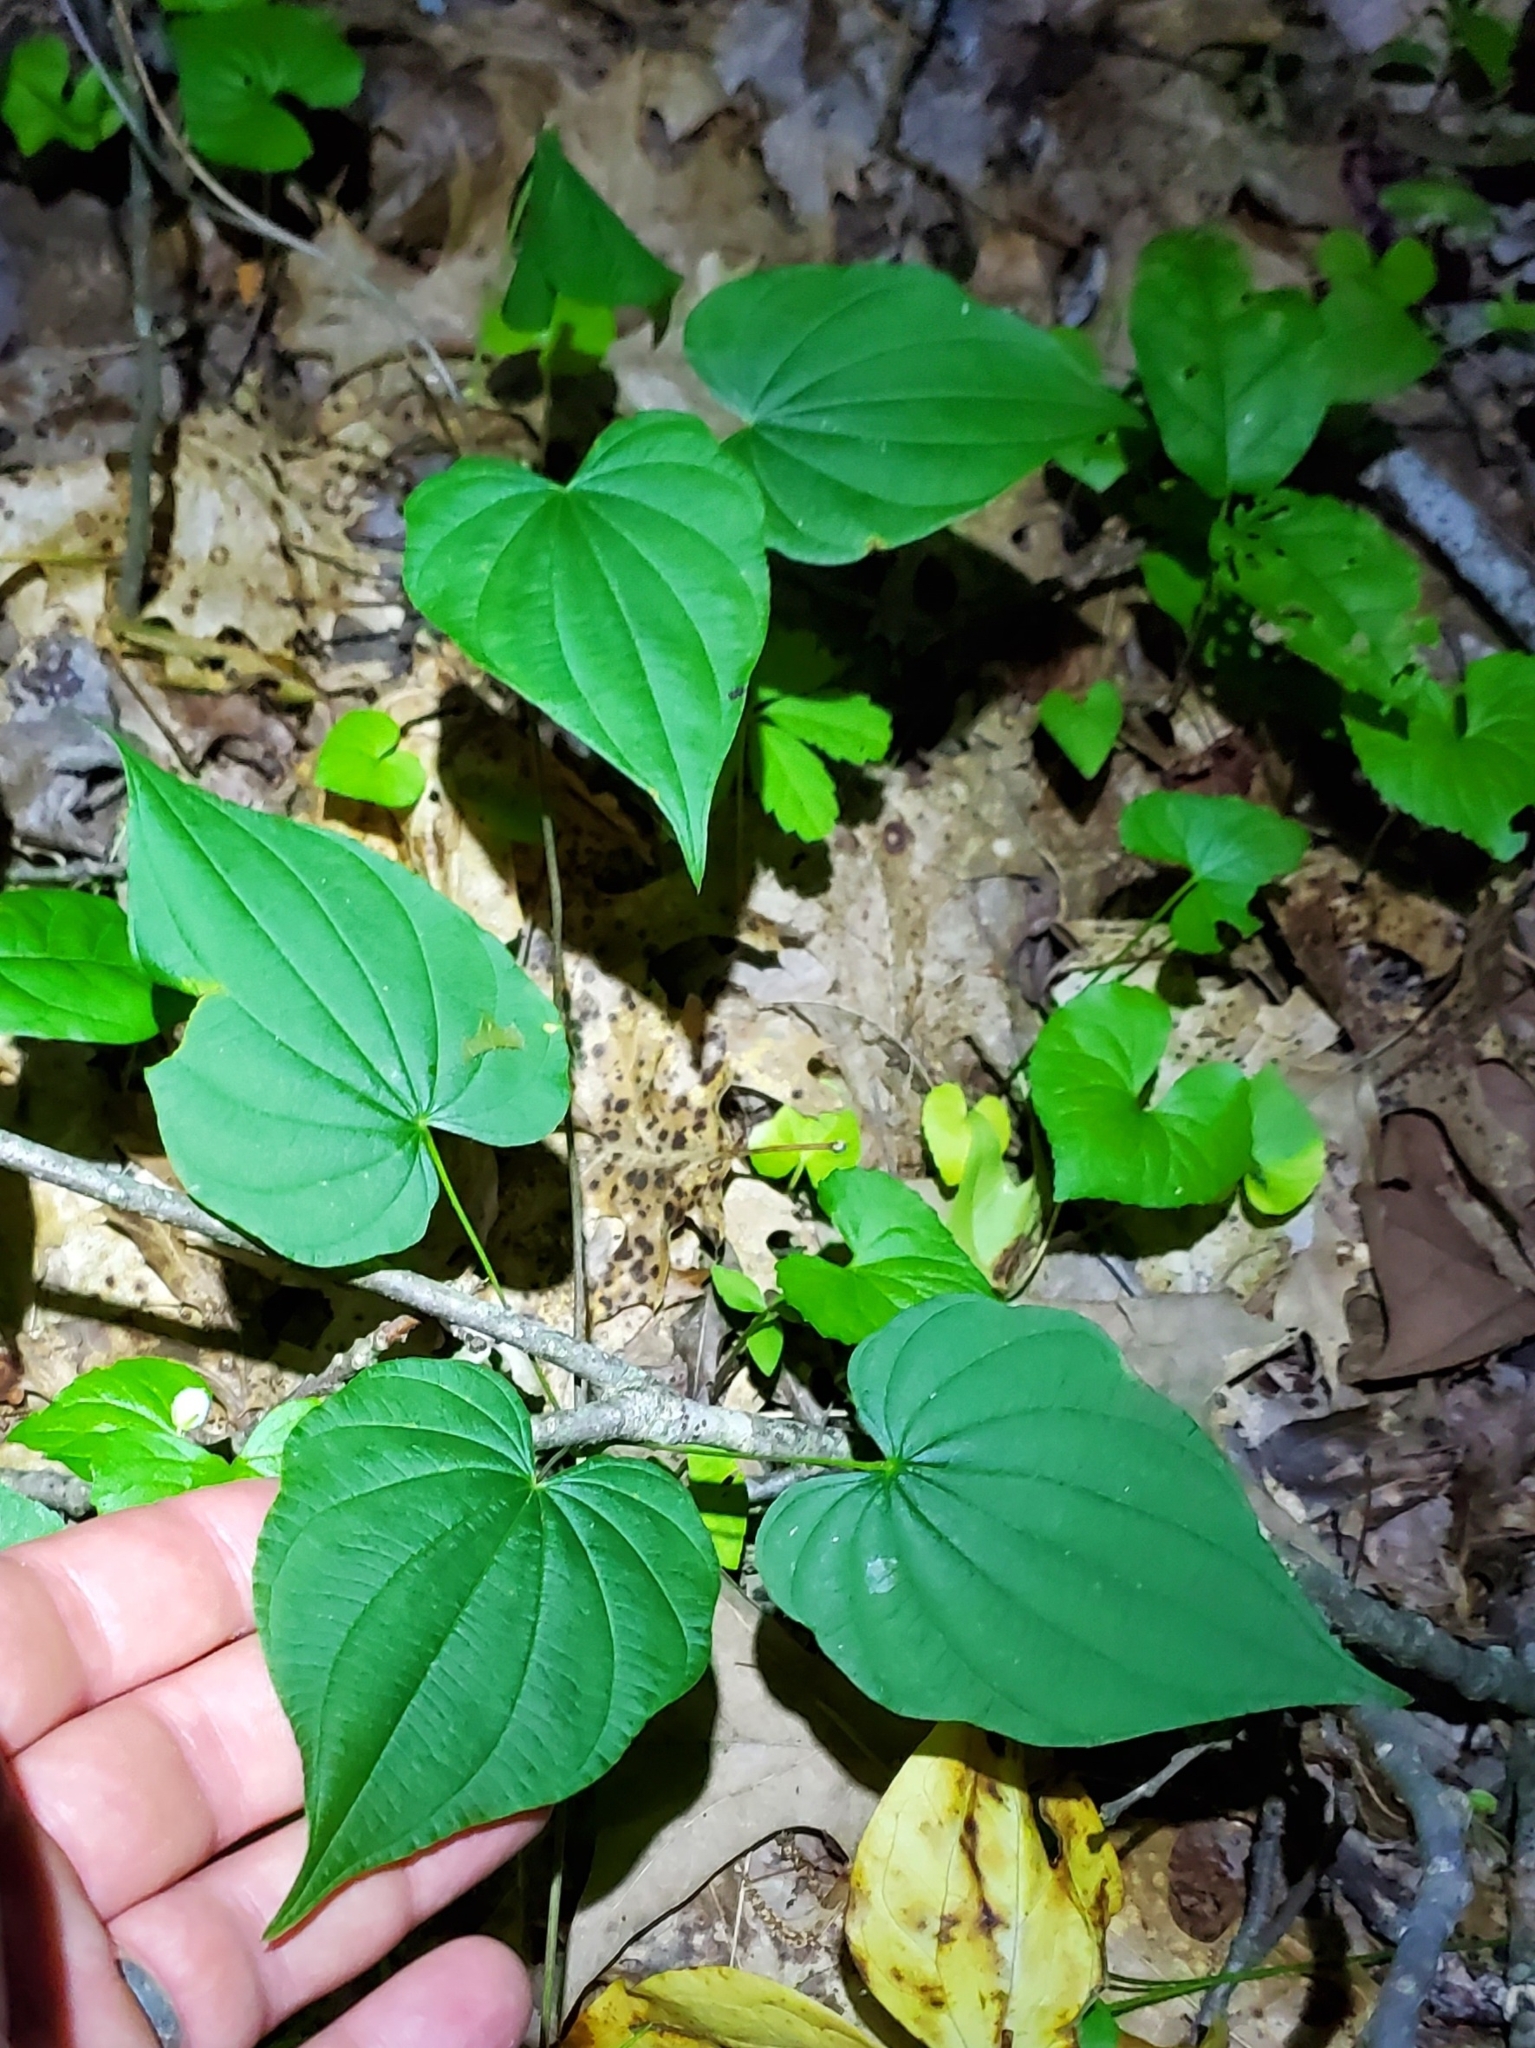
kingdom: Plantae
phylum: Tracheophyta
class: Liliopsida
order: Dioscoreales
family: Dioscoreaceae
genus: Dioscorea
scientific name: Dioscorea villosa
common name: Wild yam
